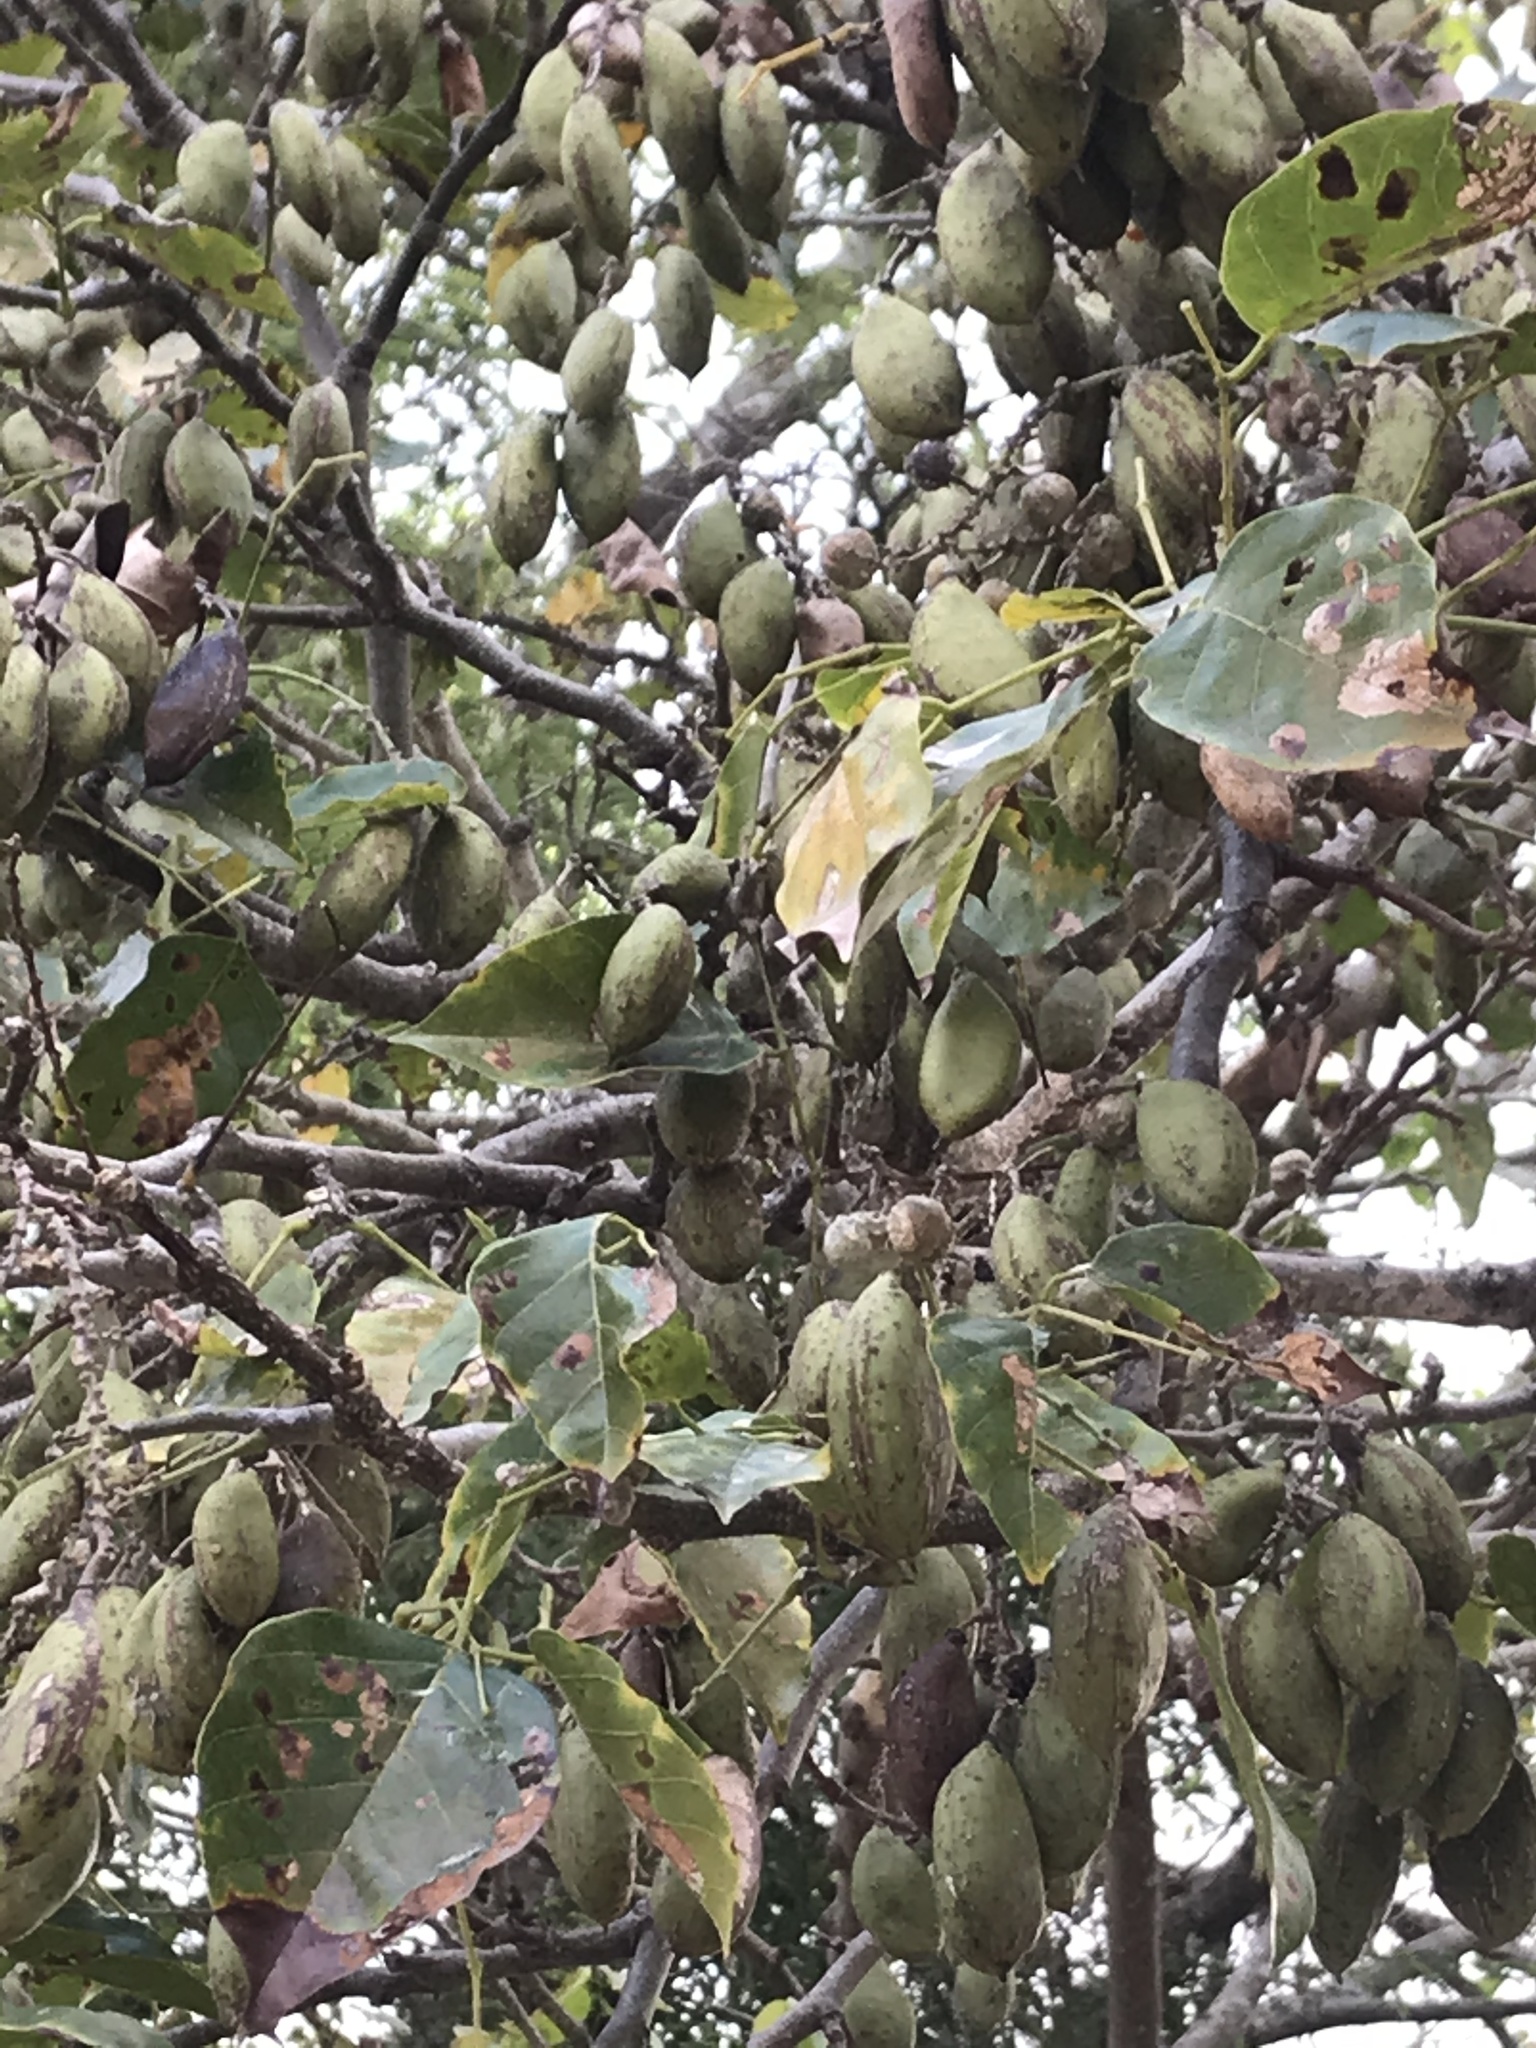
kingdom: Plantae
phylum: Tracheophyta
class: Magnoliopsida
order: Fabales
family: Fabaceae
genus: Pongamia
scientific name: Pongamia pinnata
